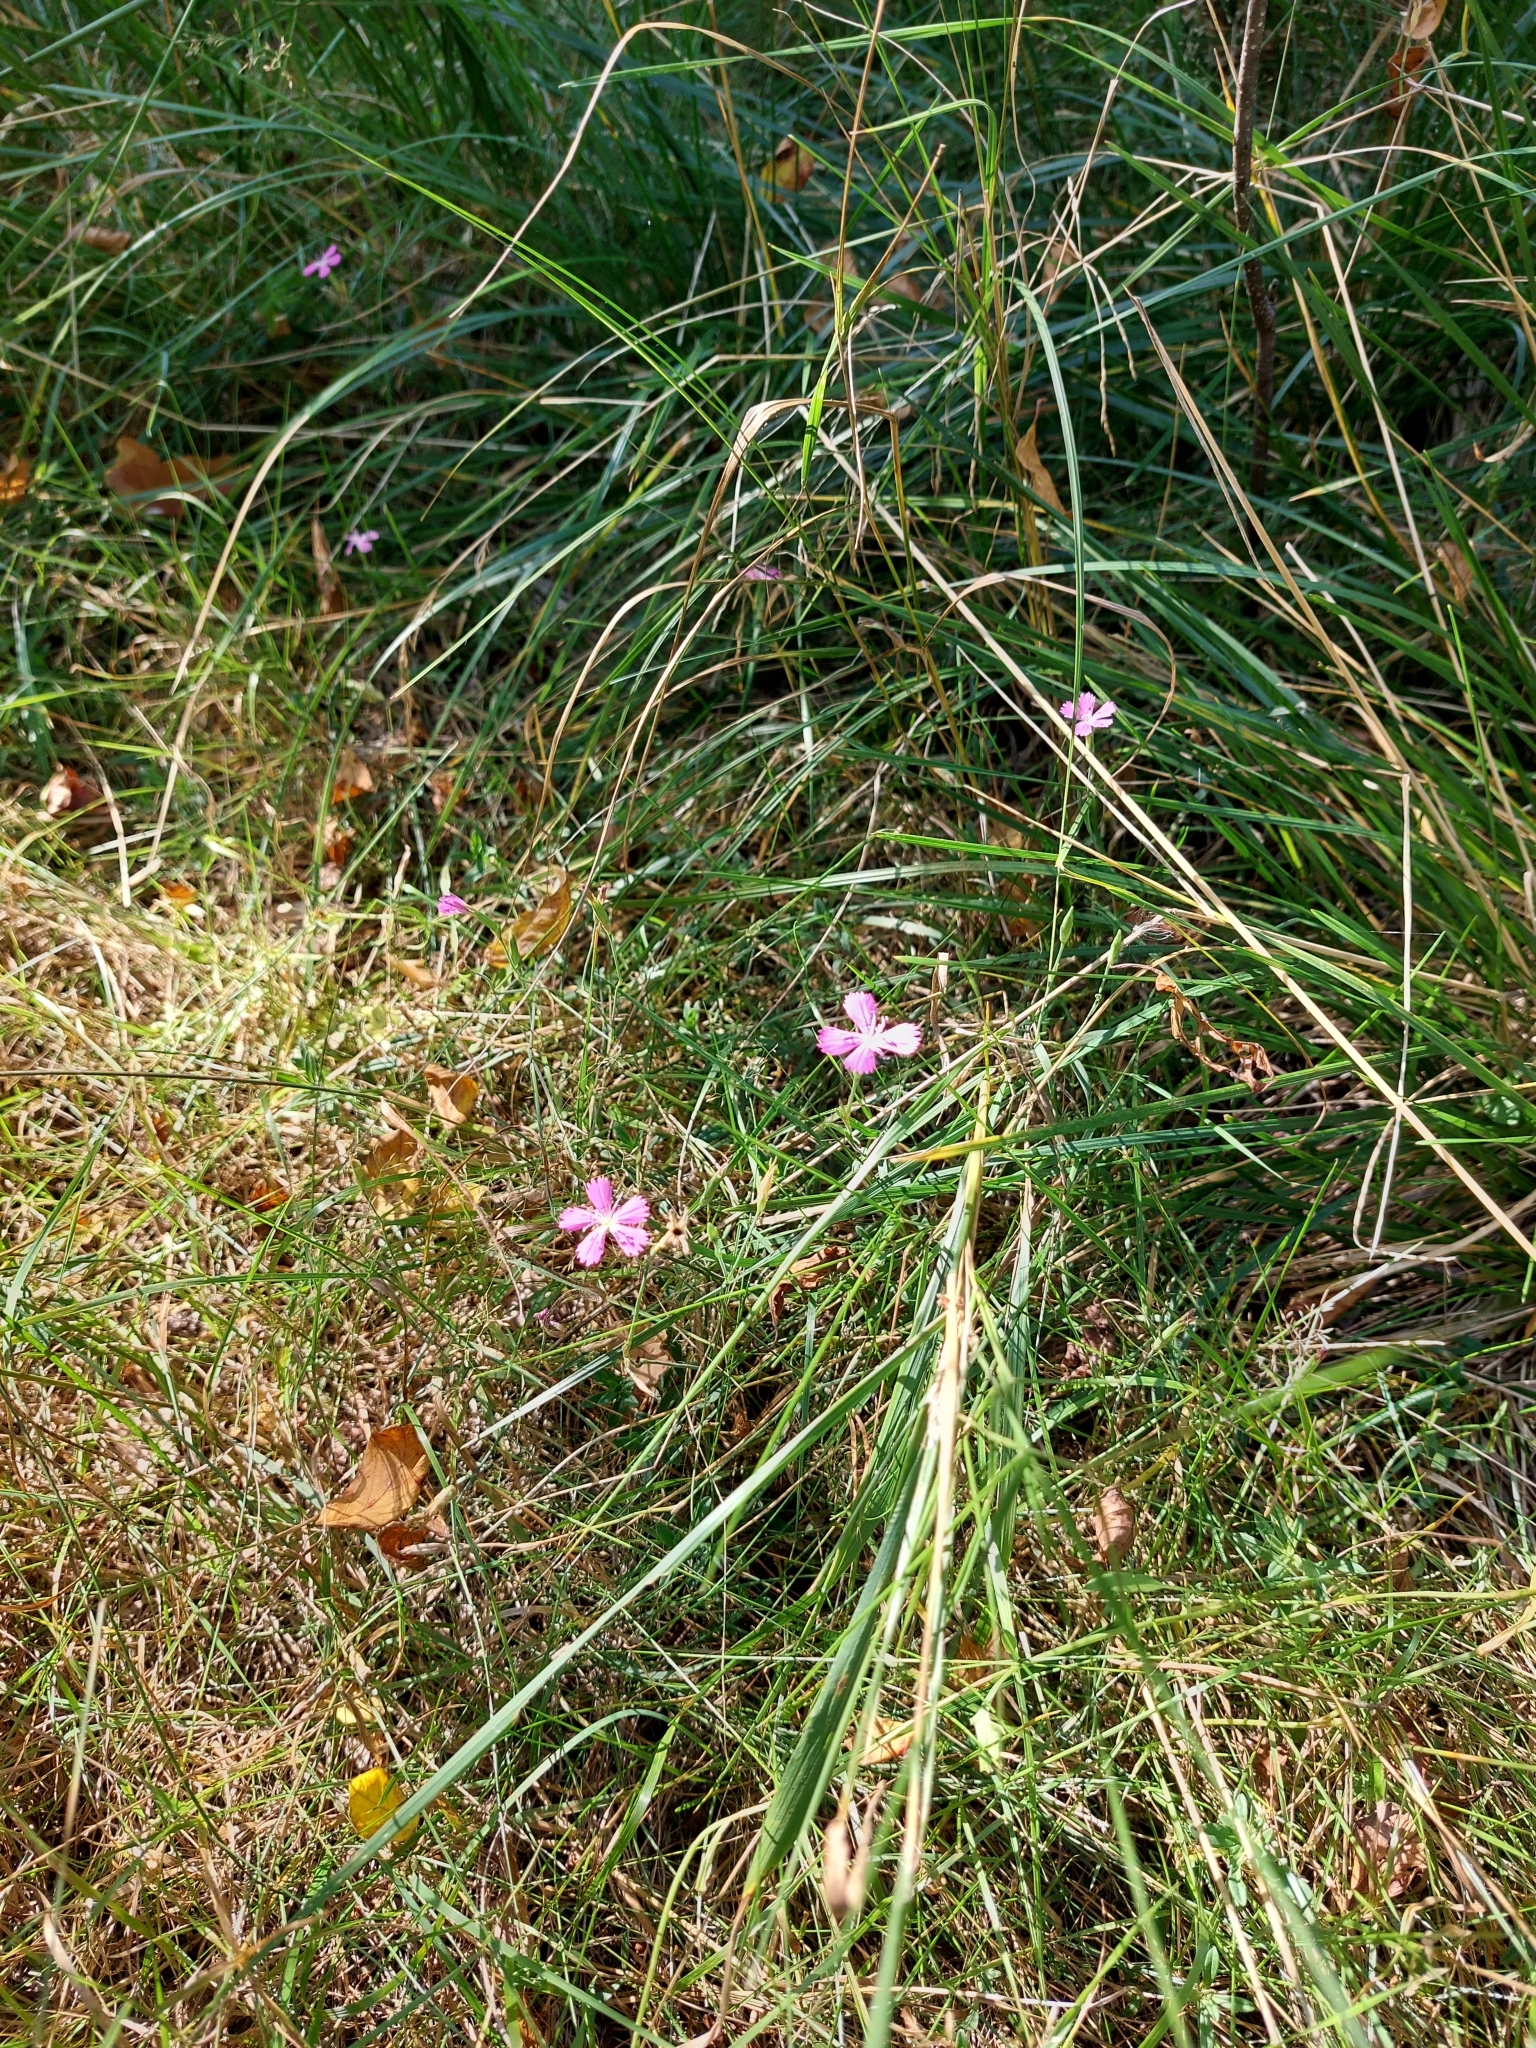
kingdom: Plantae
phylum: Tracheophyta
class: Magnoliopsida
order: Caryophyllales
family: Caryophyllaceae
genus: Dianthus
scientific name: Dianthus deltoides
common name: Maiden pink
